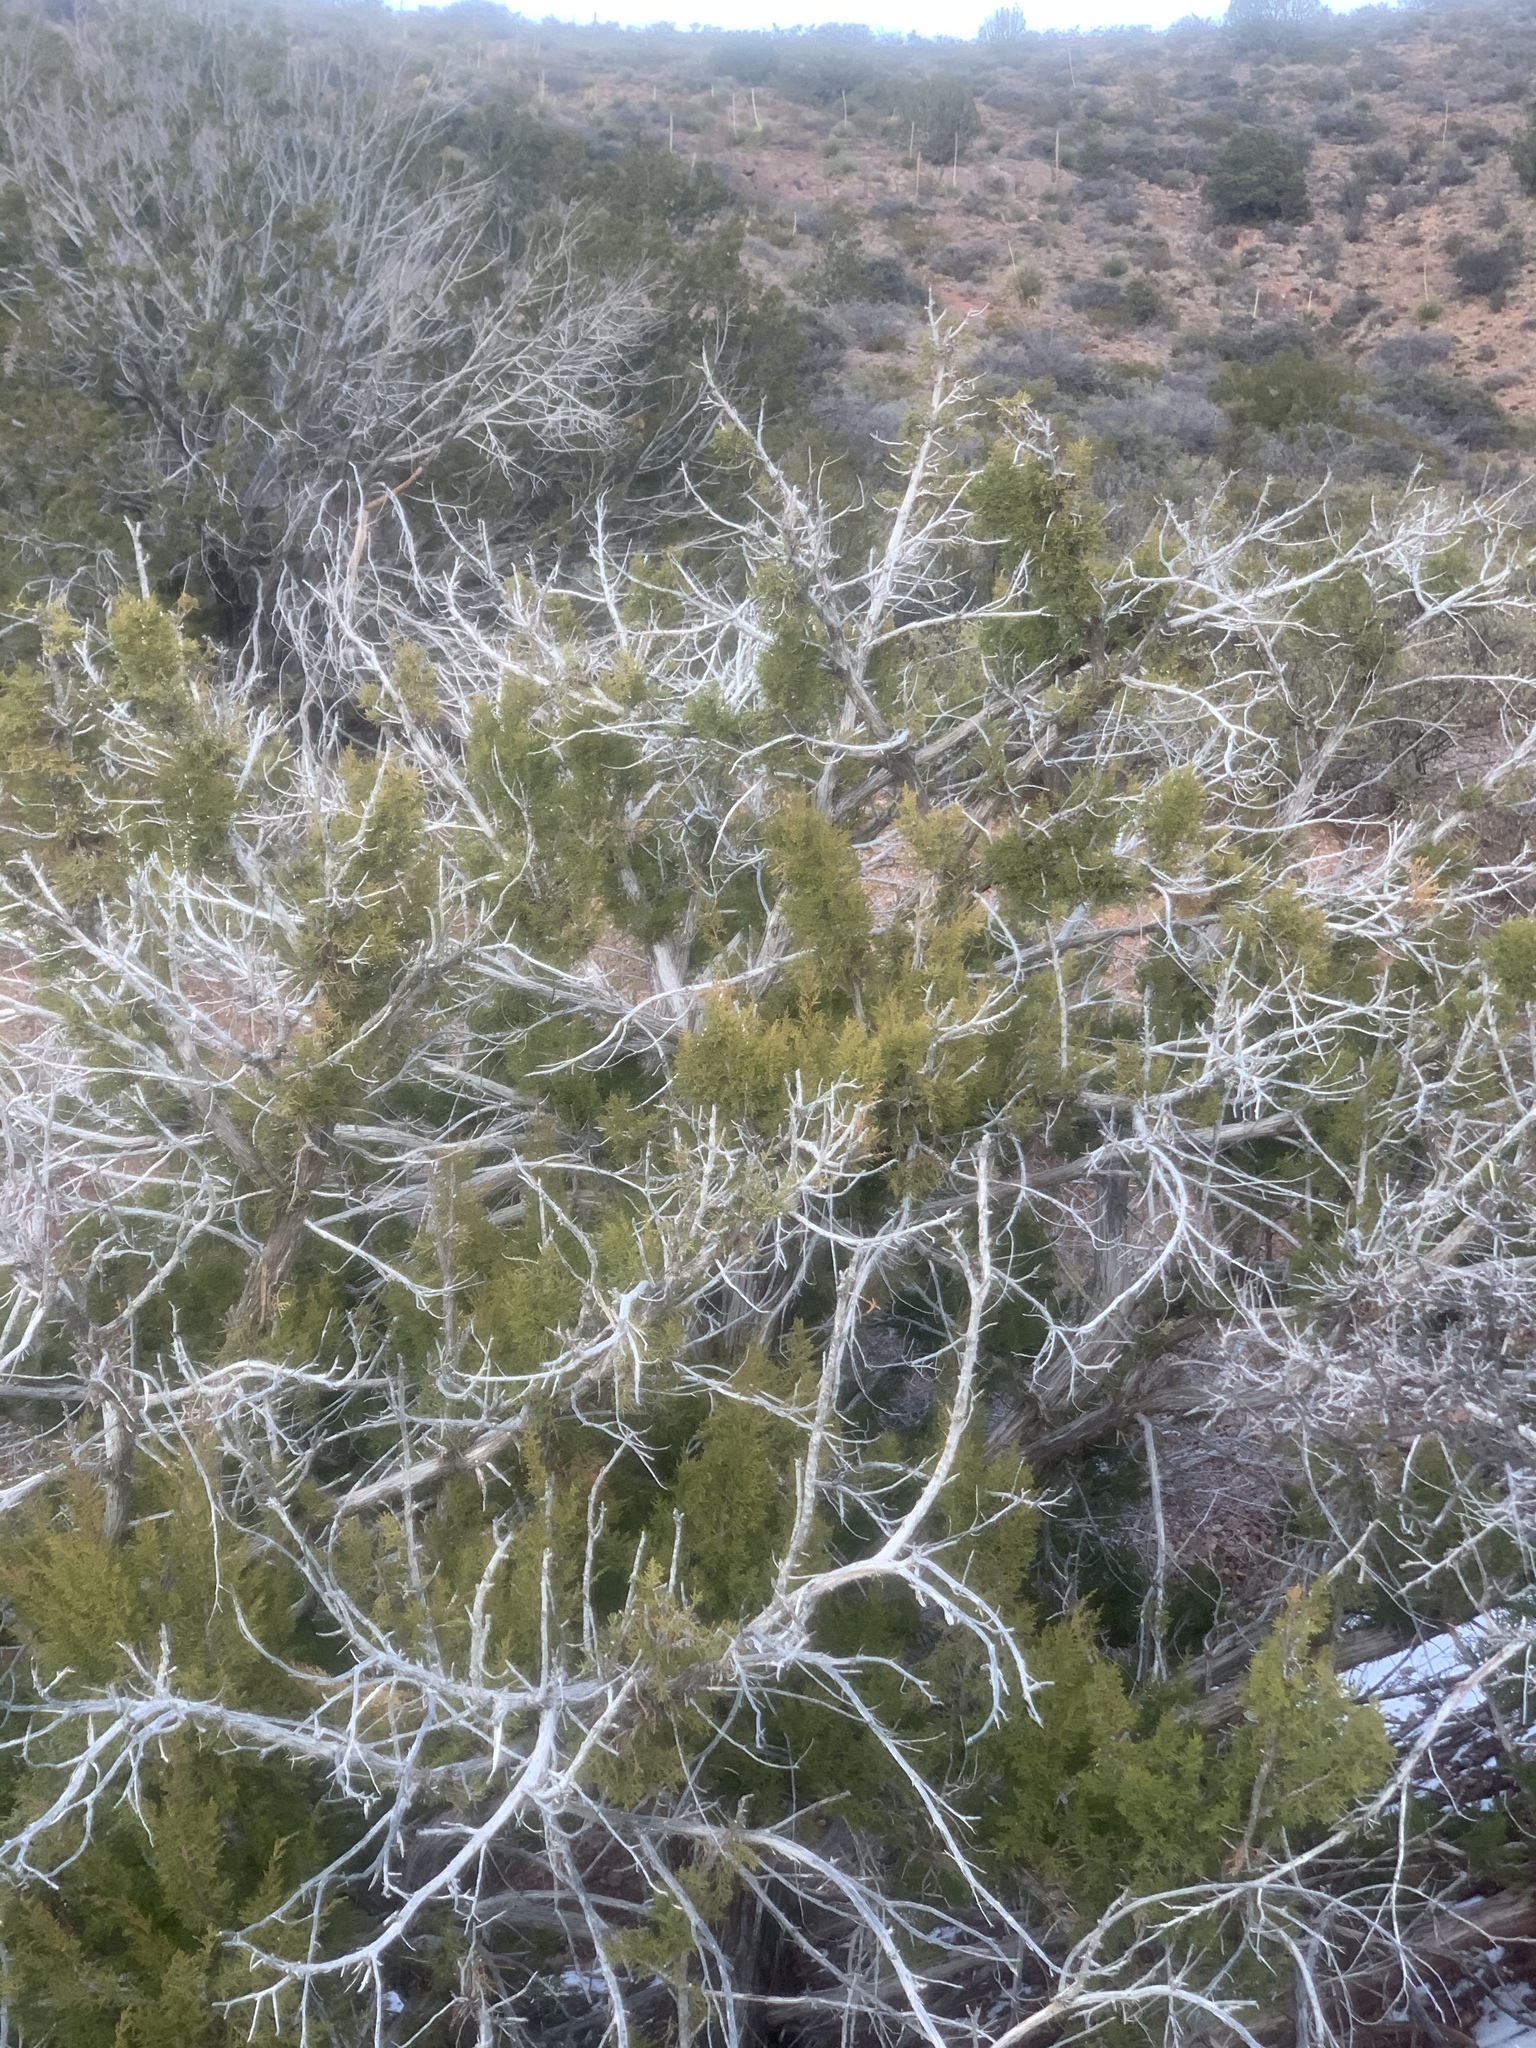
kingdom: Plantae
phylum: Tracheophyta
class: Pinopsida
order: Pinales
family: Cupressaceae
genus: Juniperus
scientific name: Juniperus monosperma
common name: One-seed juniper
